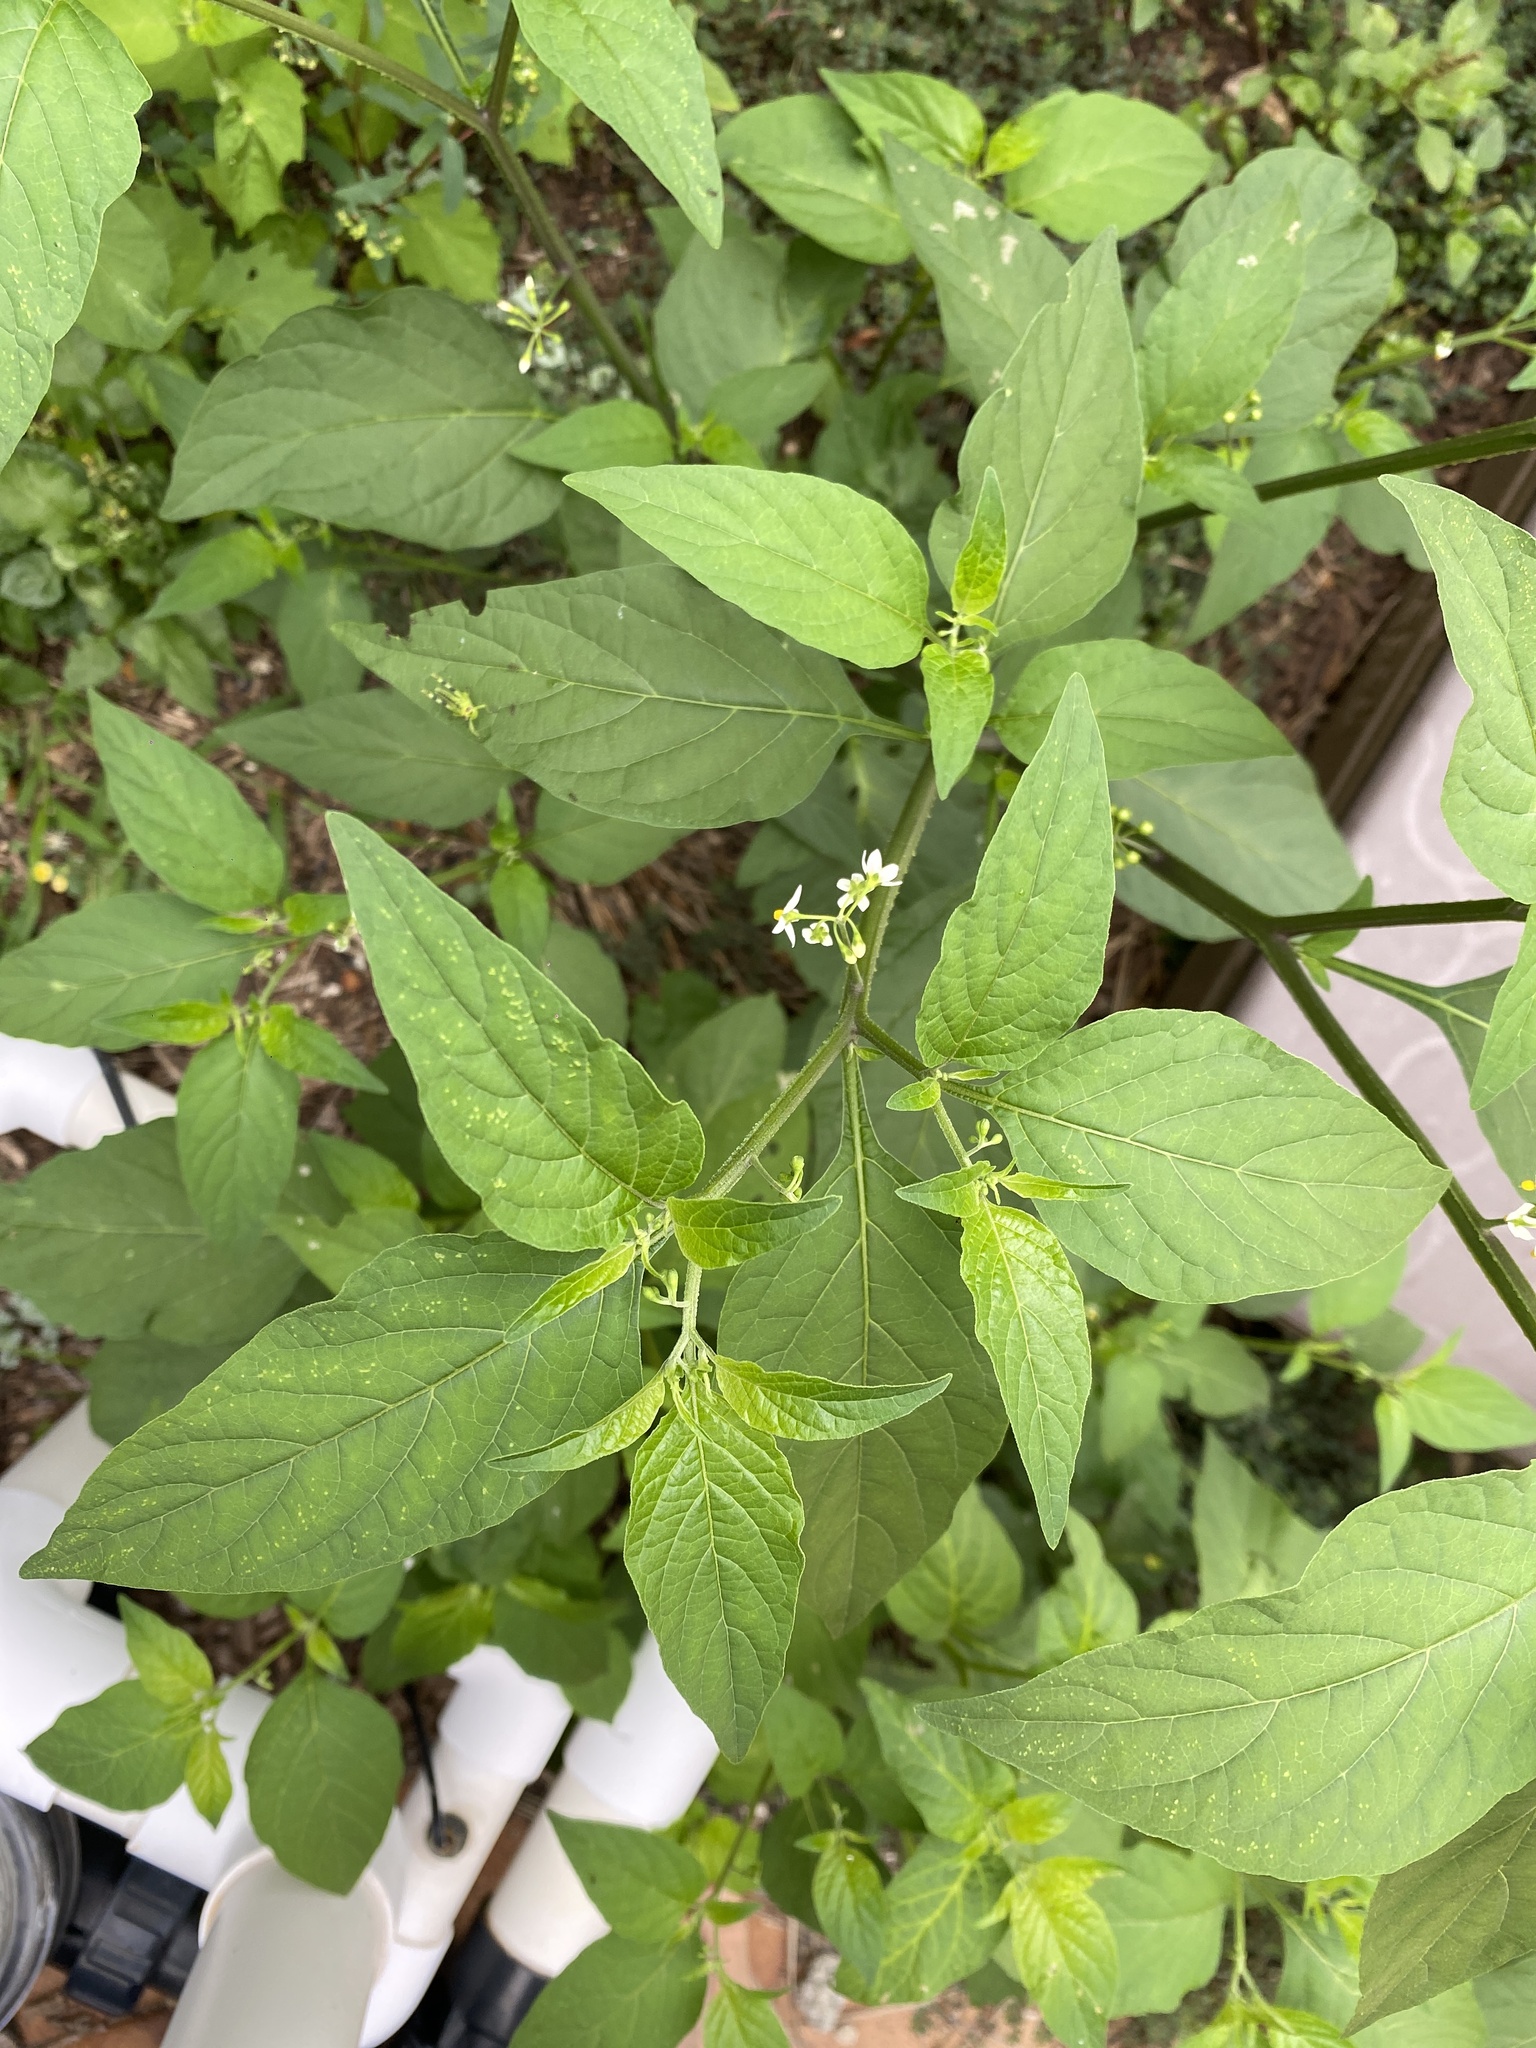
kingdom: Plantae
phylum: Tracheophyta
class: Magnoliopsida
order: Solanales
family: Solanaceae
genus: Solanum
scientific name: Solanum americanum
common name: American black nightshade
